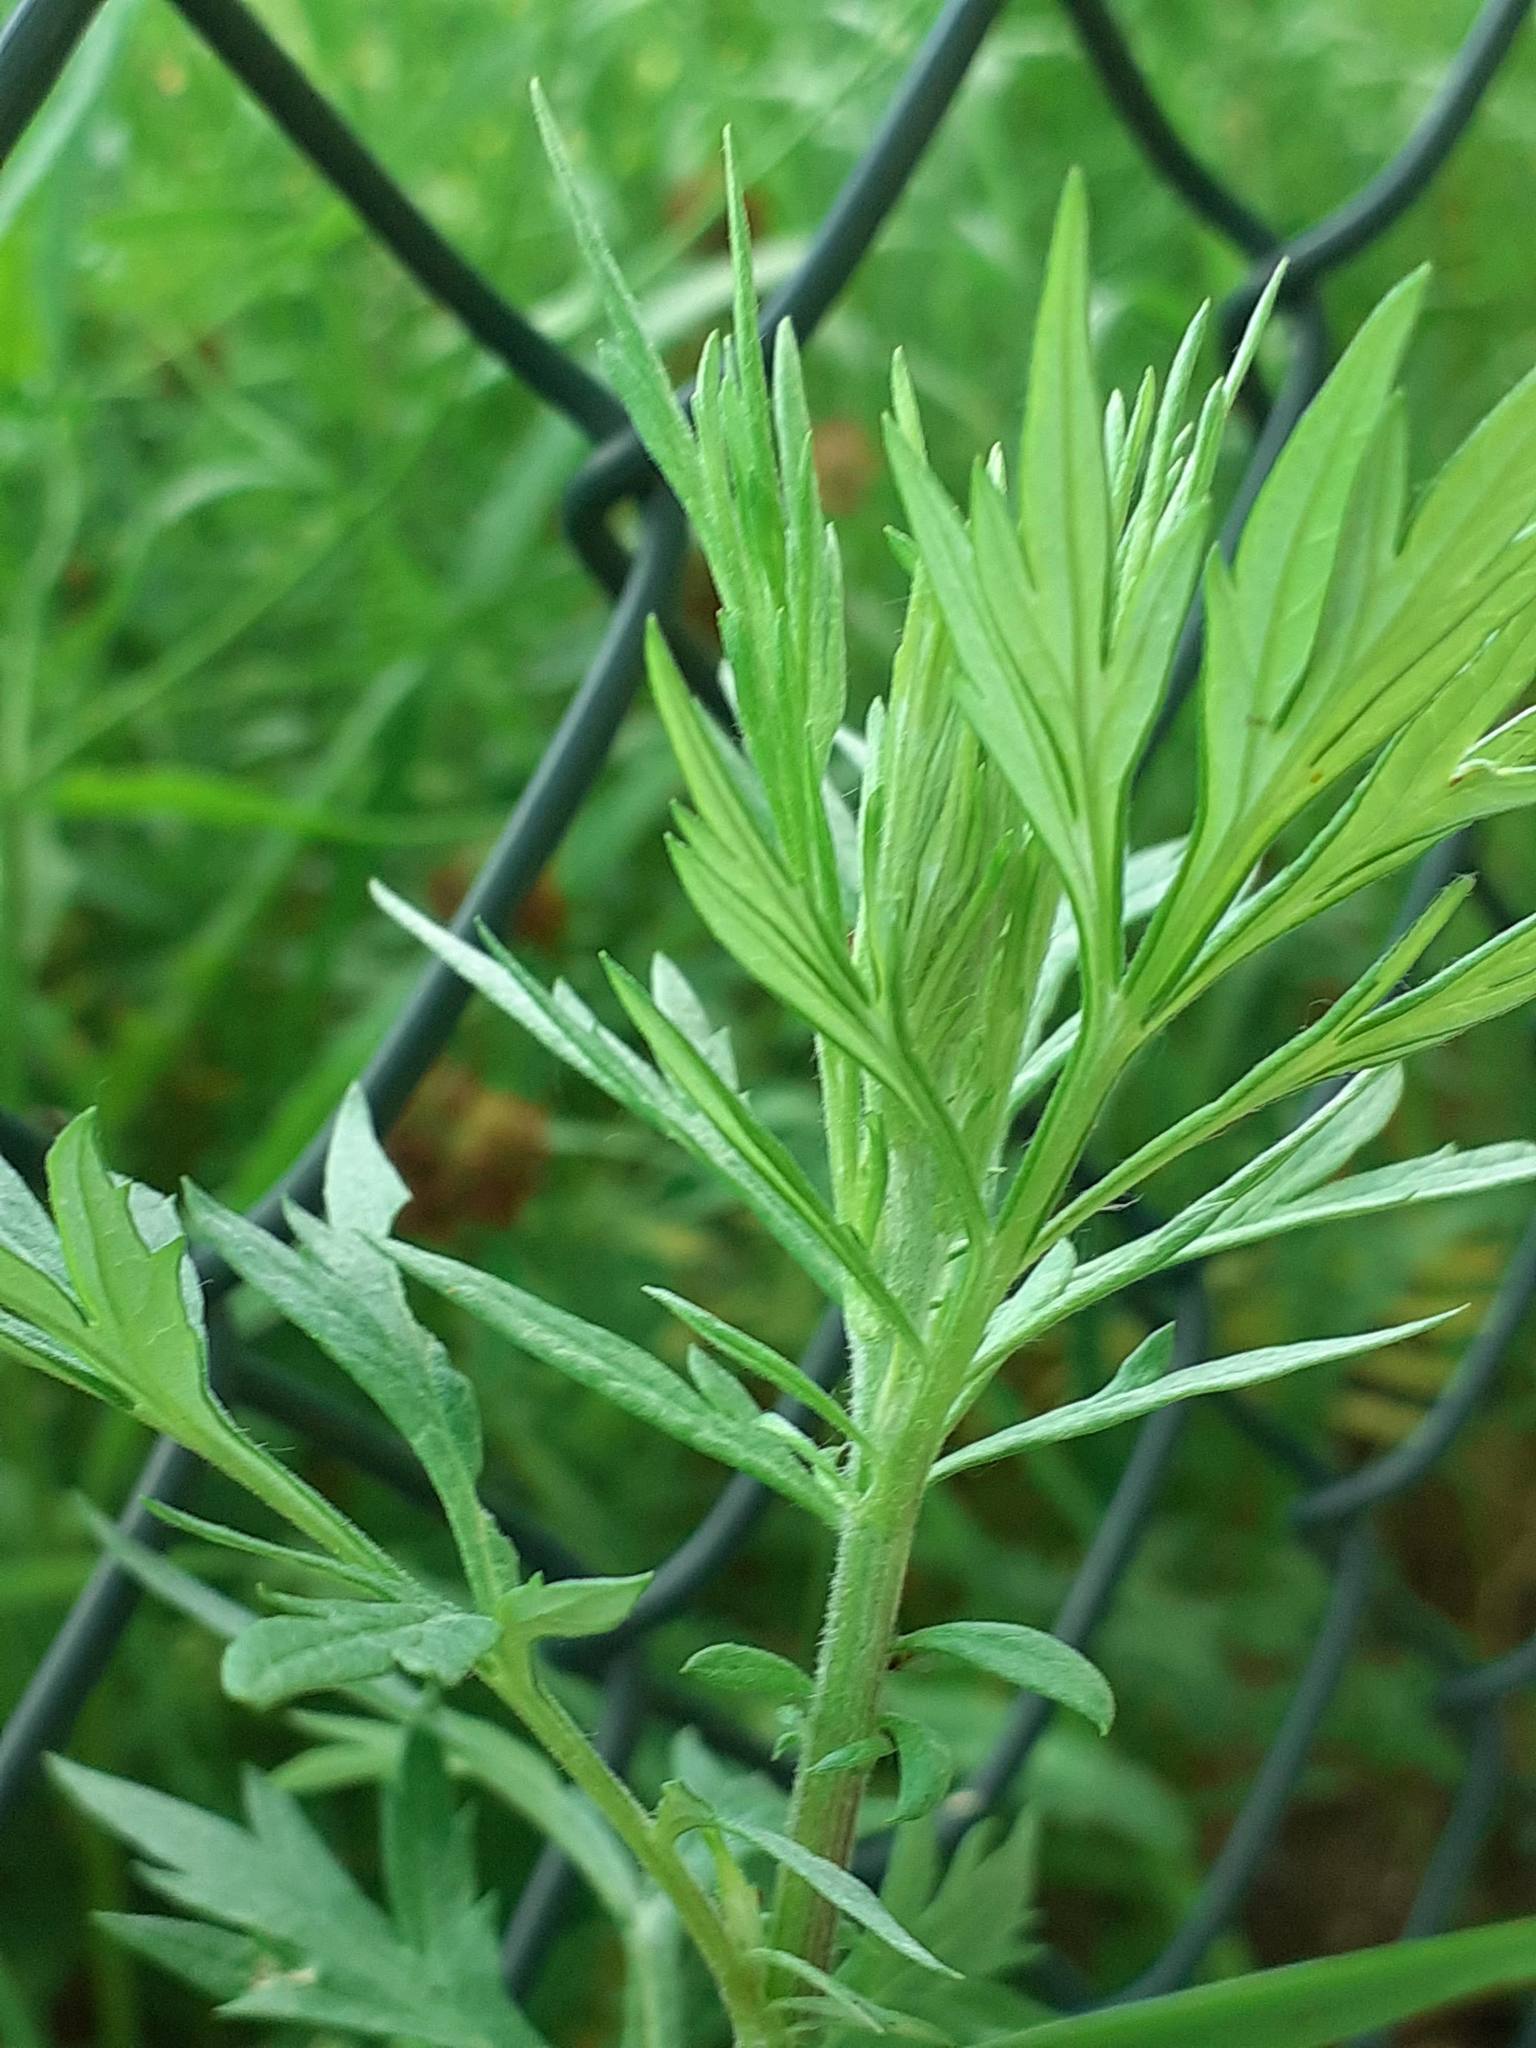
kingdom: Plantae
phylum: Tracheophyta
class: Magnoliopsida
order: Asterales
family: Asteraceae
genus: Artemisia
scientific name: Artemisia vulgaris
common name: Mugwort
